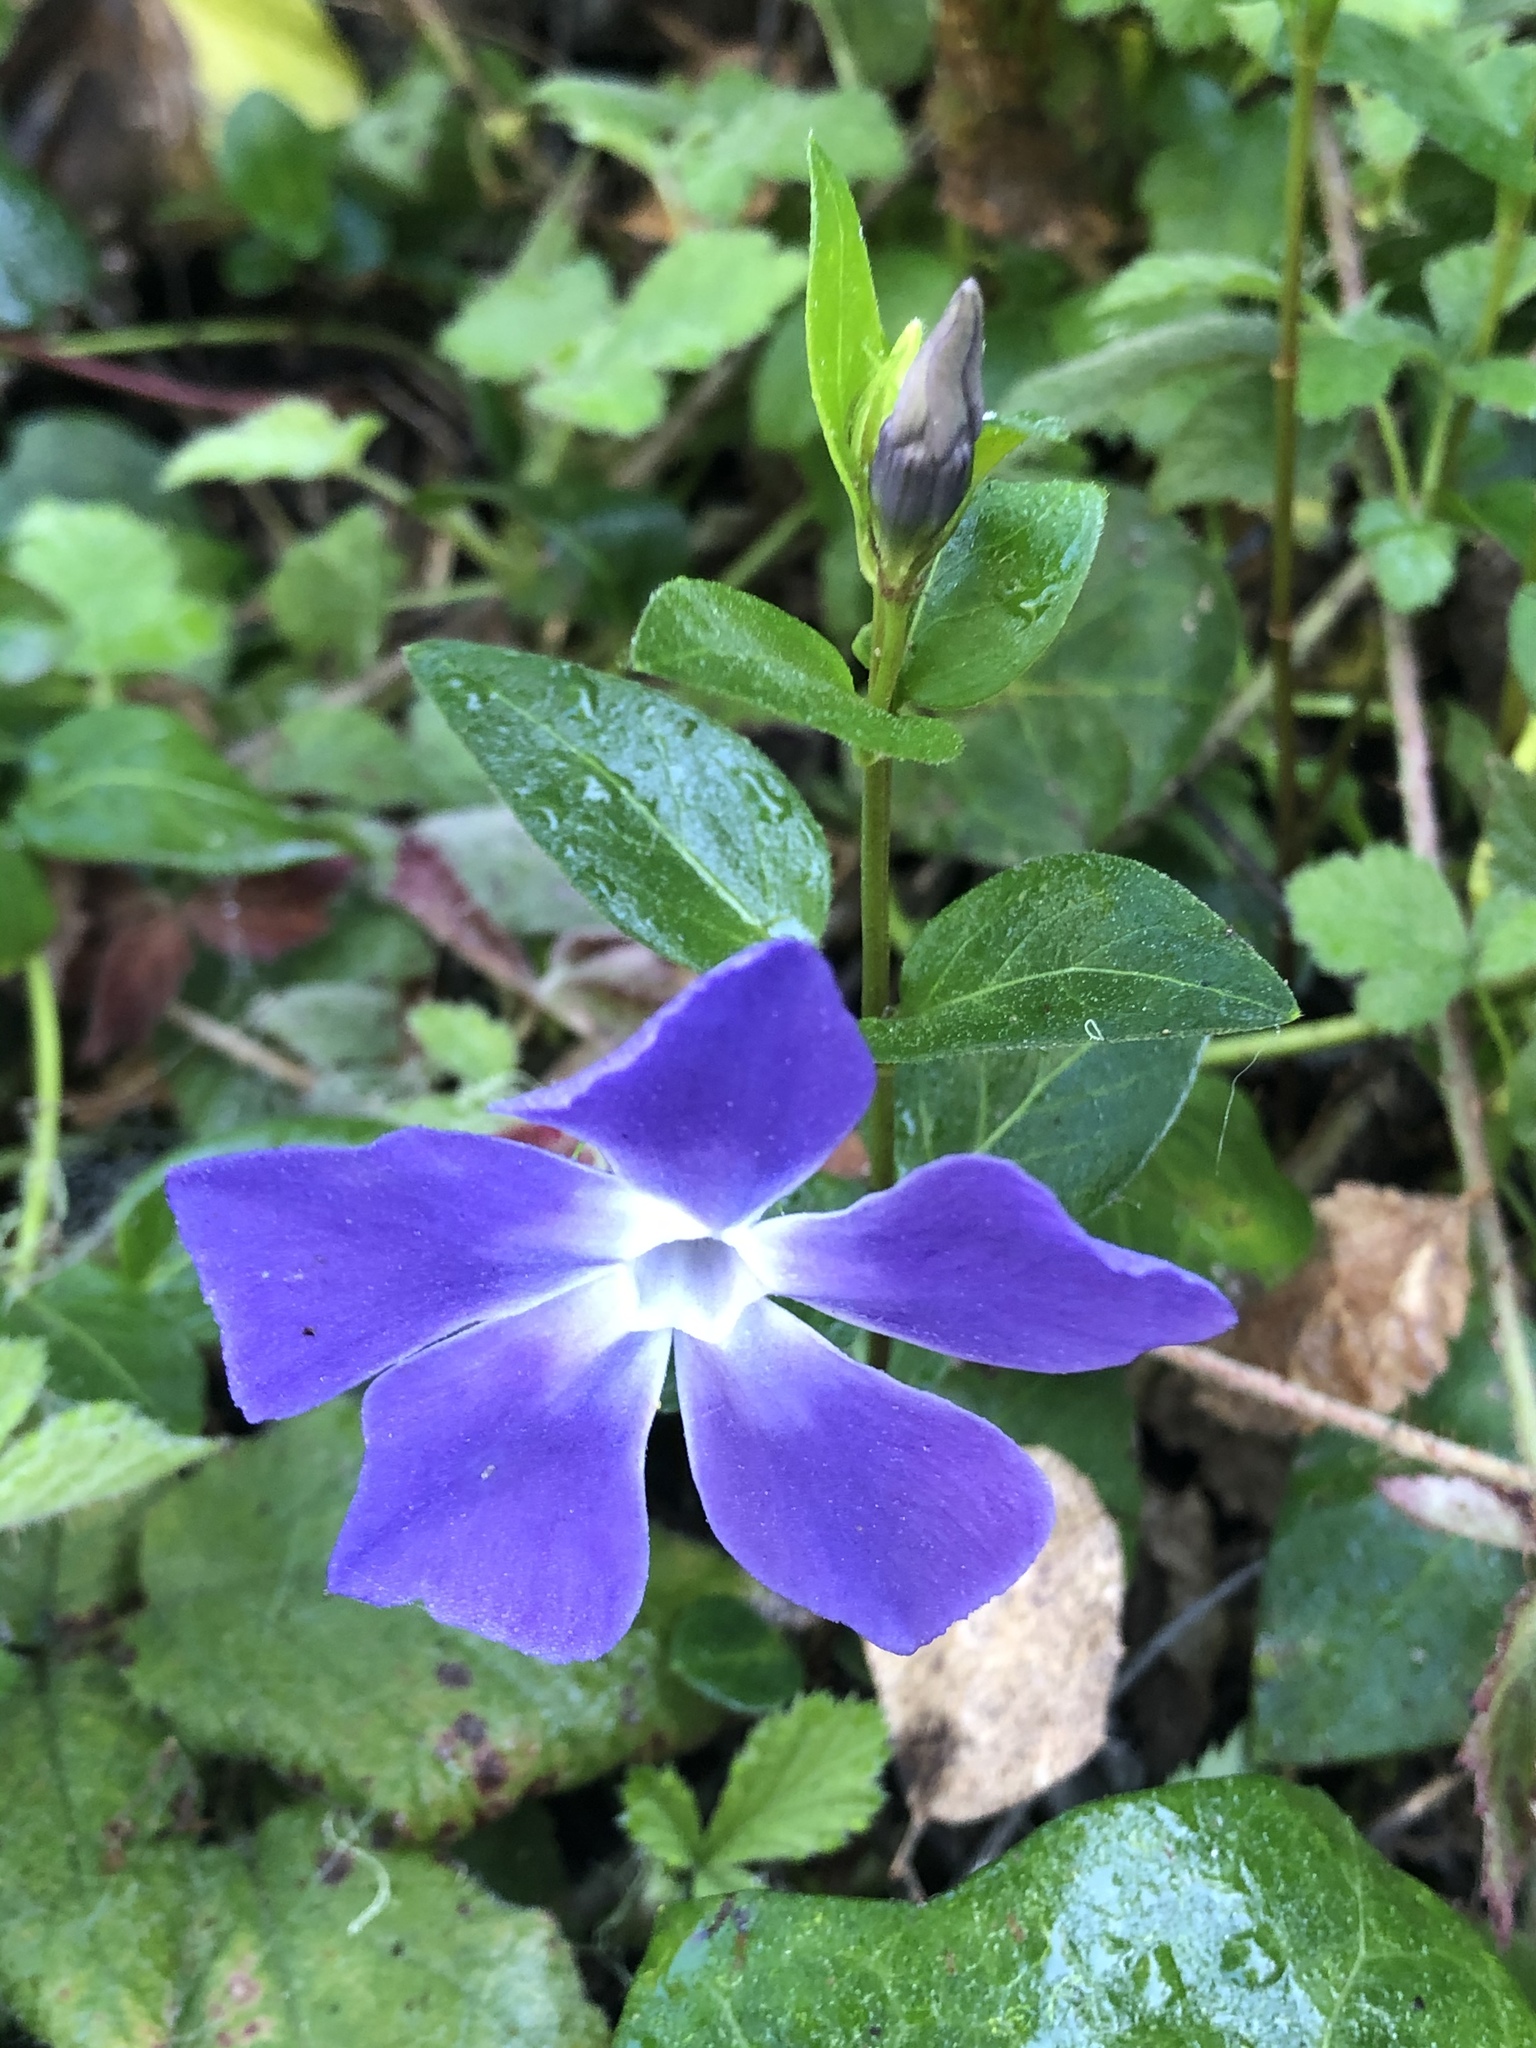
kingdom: Plantae
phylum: Tracheophyta
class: Magnoliopsida
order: Gentianales
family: Apocynaceae
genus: Vinca
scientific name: Vinca major
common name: Greater periwinkle
